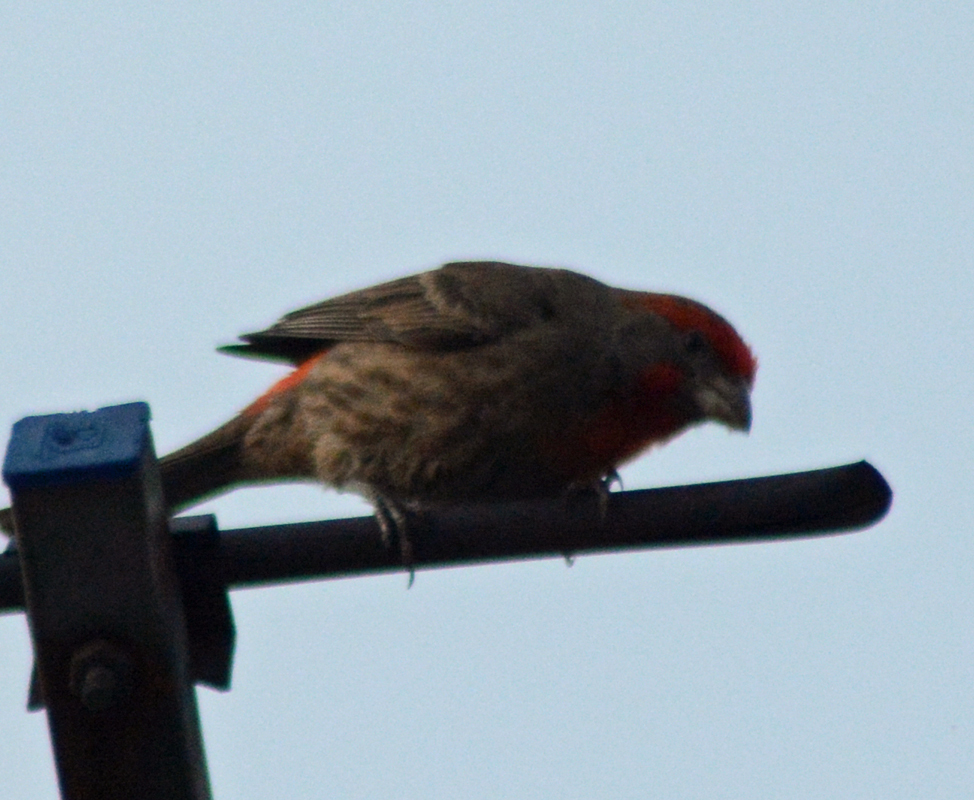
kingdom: Animalia
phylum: Chordata
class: Aves
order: Passeriformes
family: Fringillidae
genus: Haemorhous
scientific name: Haemorhous mexicanus
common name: House finch
